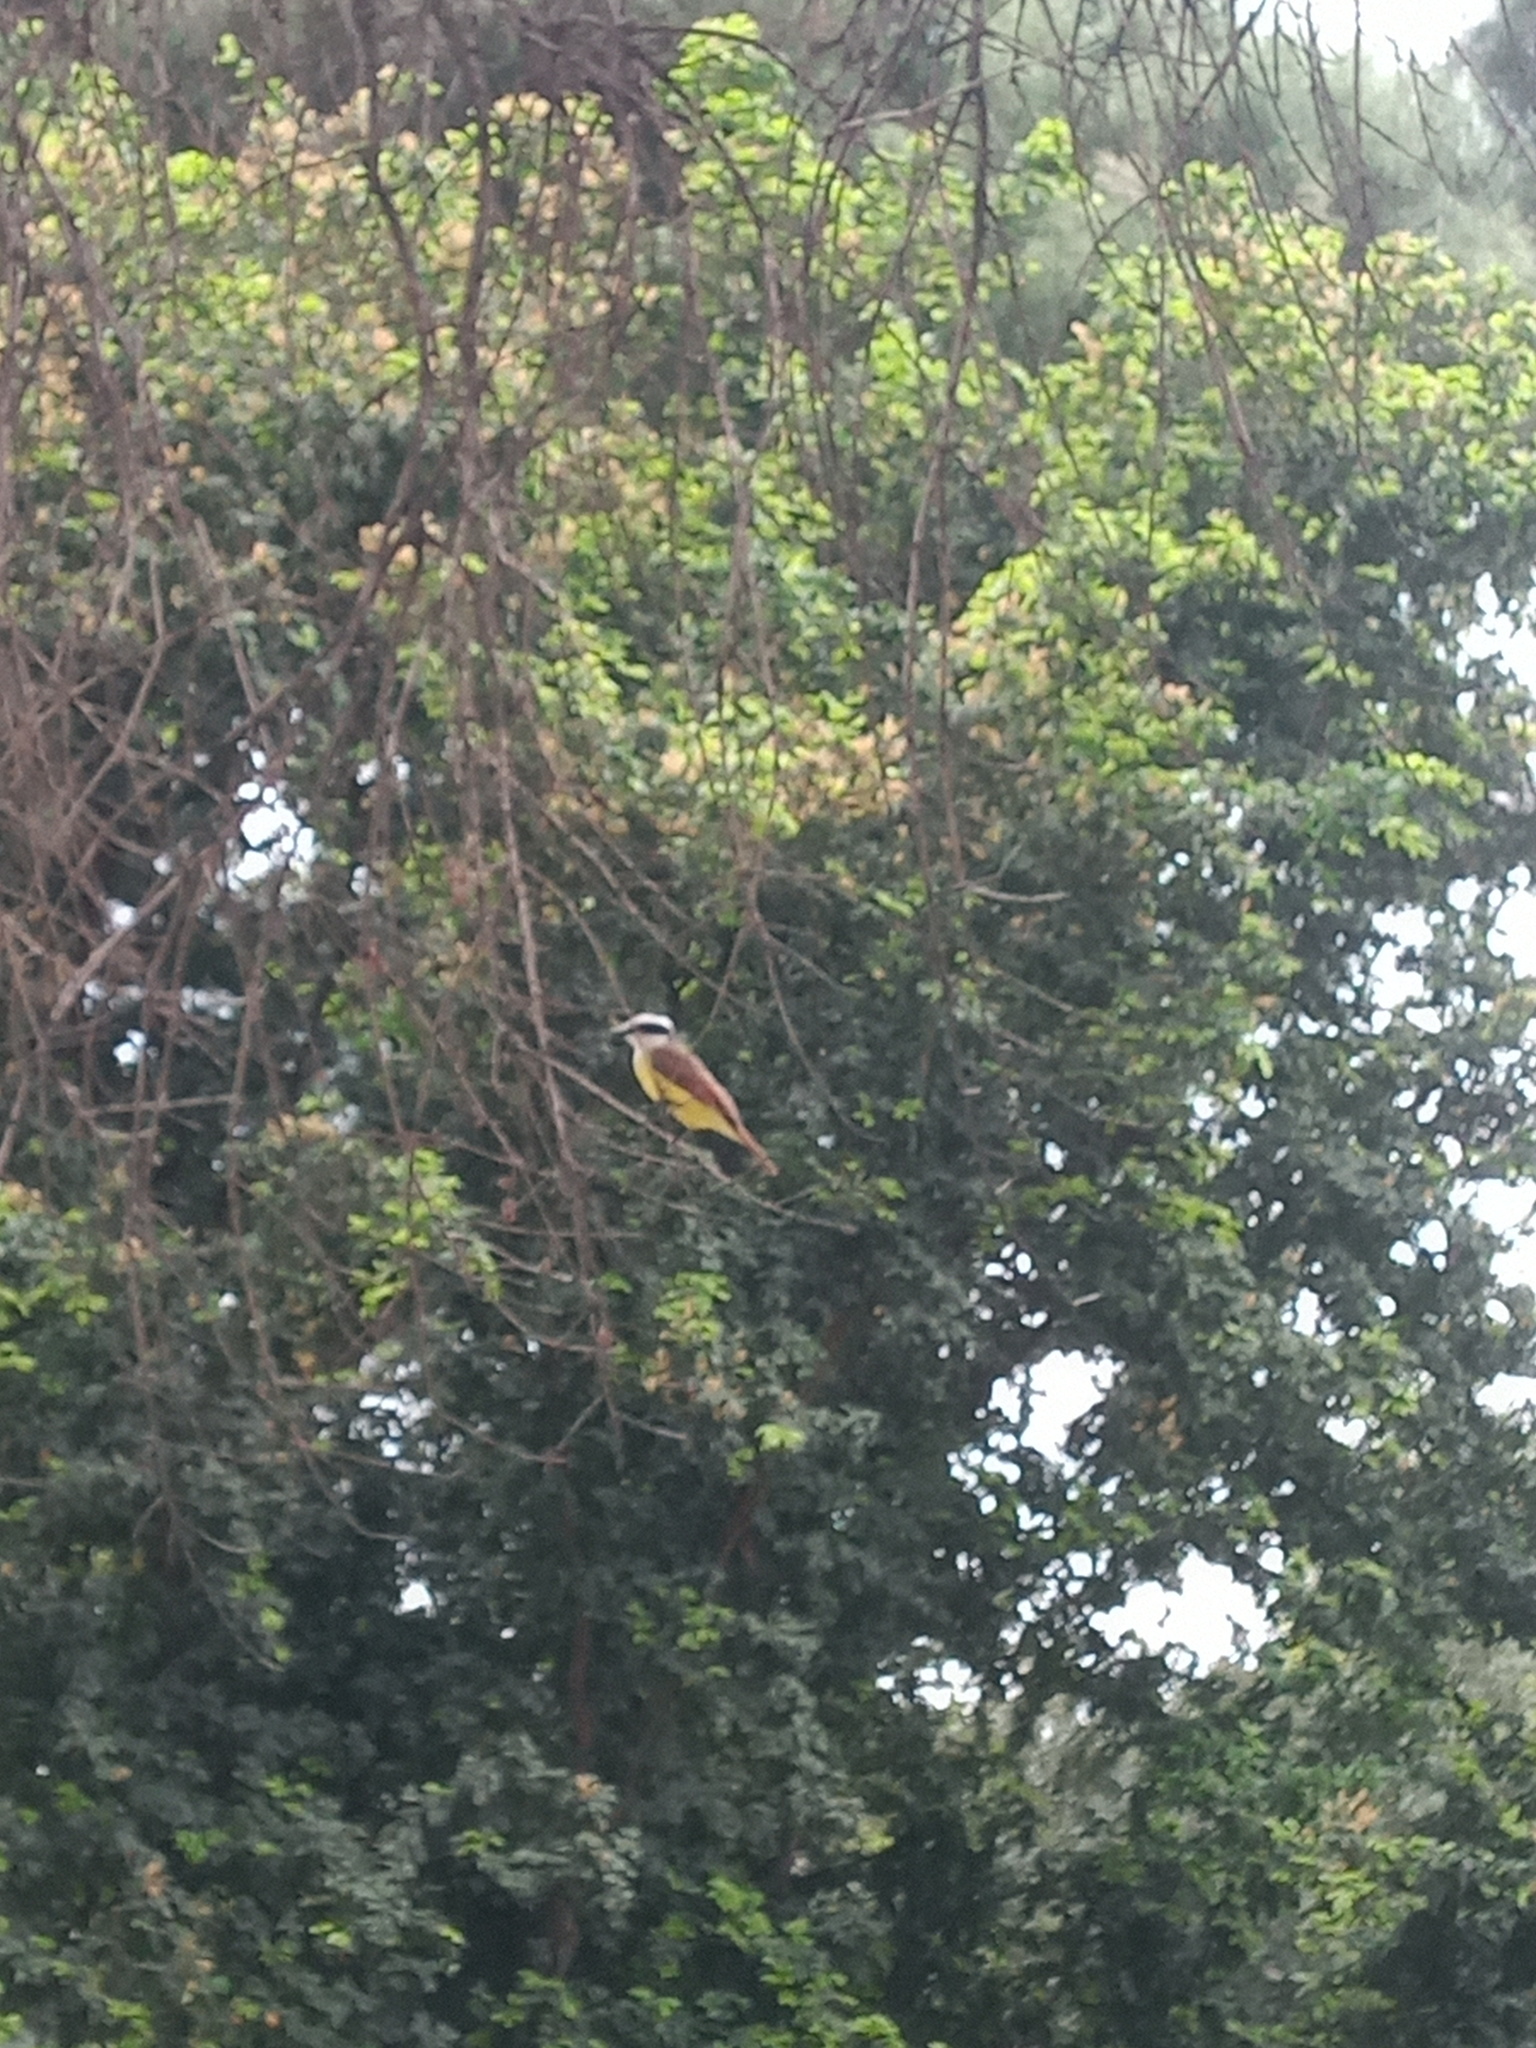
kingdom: Animalia
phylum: Chordata
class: Aves
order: Passeriformes
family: Tyrannidae
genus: Pitangus
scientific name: Pitangus sulphuratus
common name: Great kiskadee
